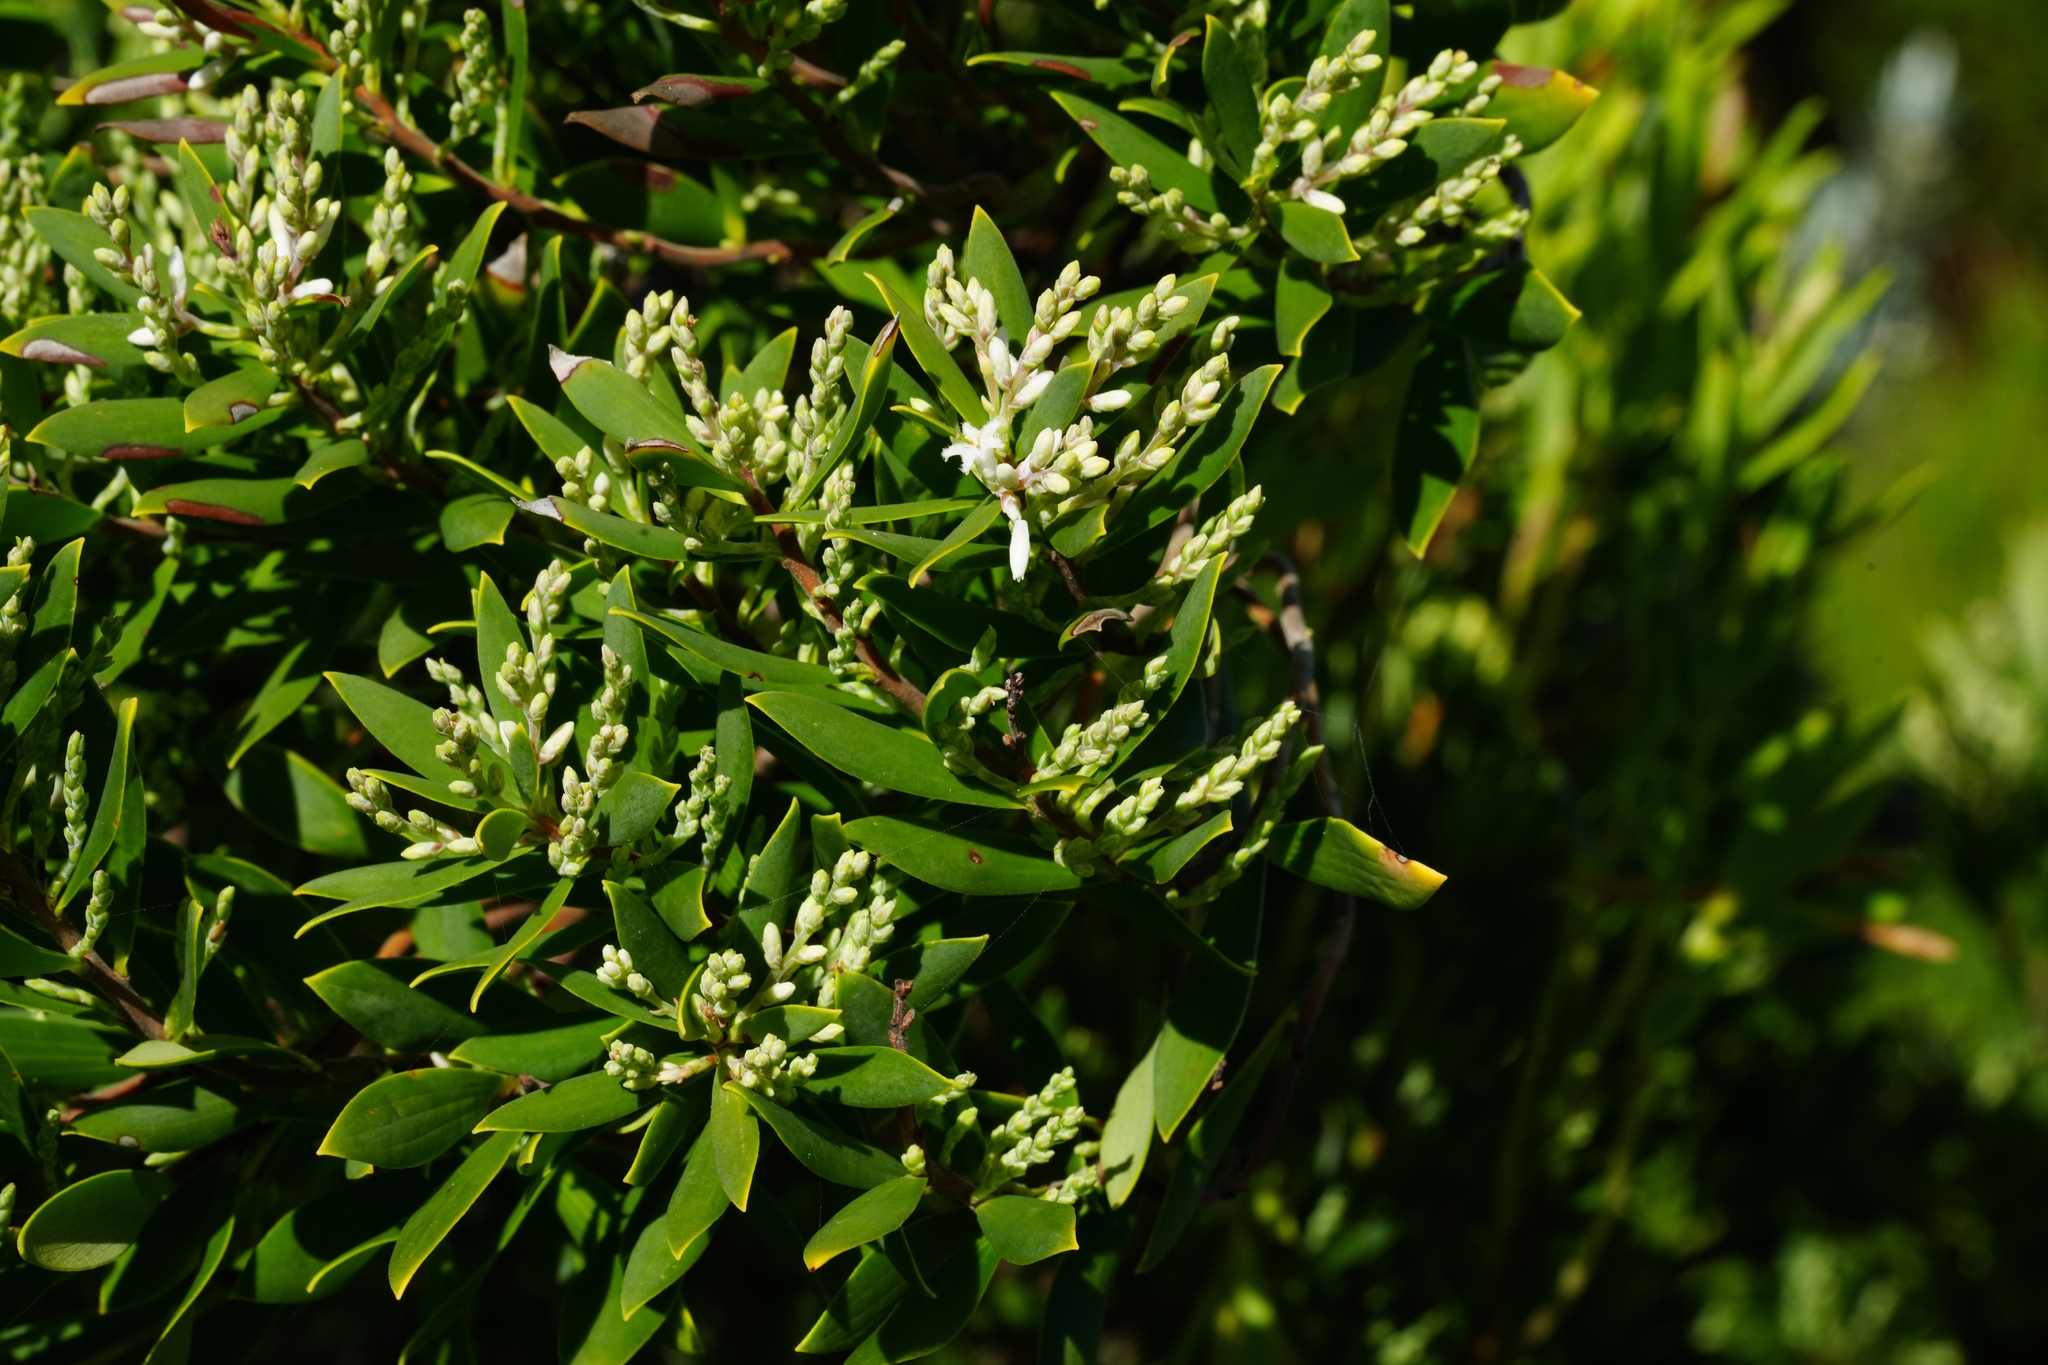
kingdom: Plantae
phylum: Tracheophyta
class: Magnoliopsida
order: Ericales
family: Ericaceae
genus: Leptecophylla
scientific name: Leptecophylla parvifolia
